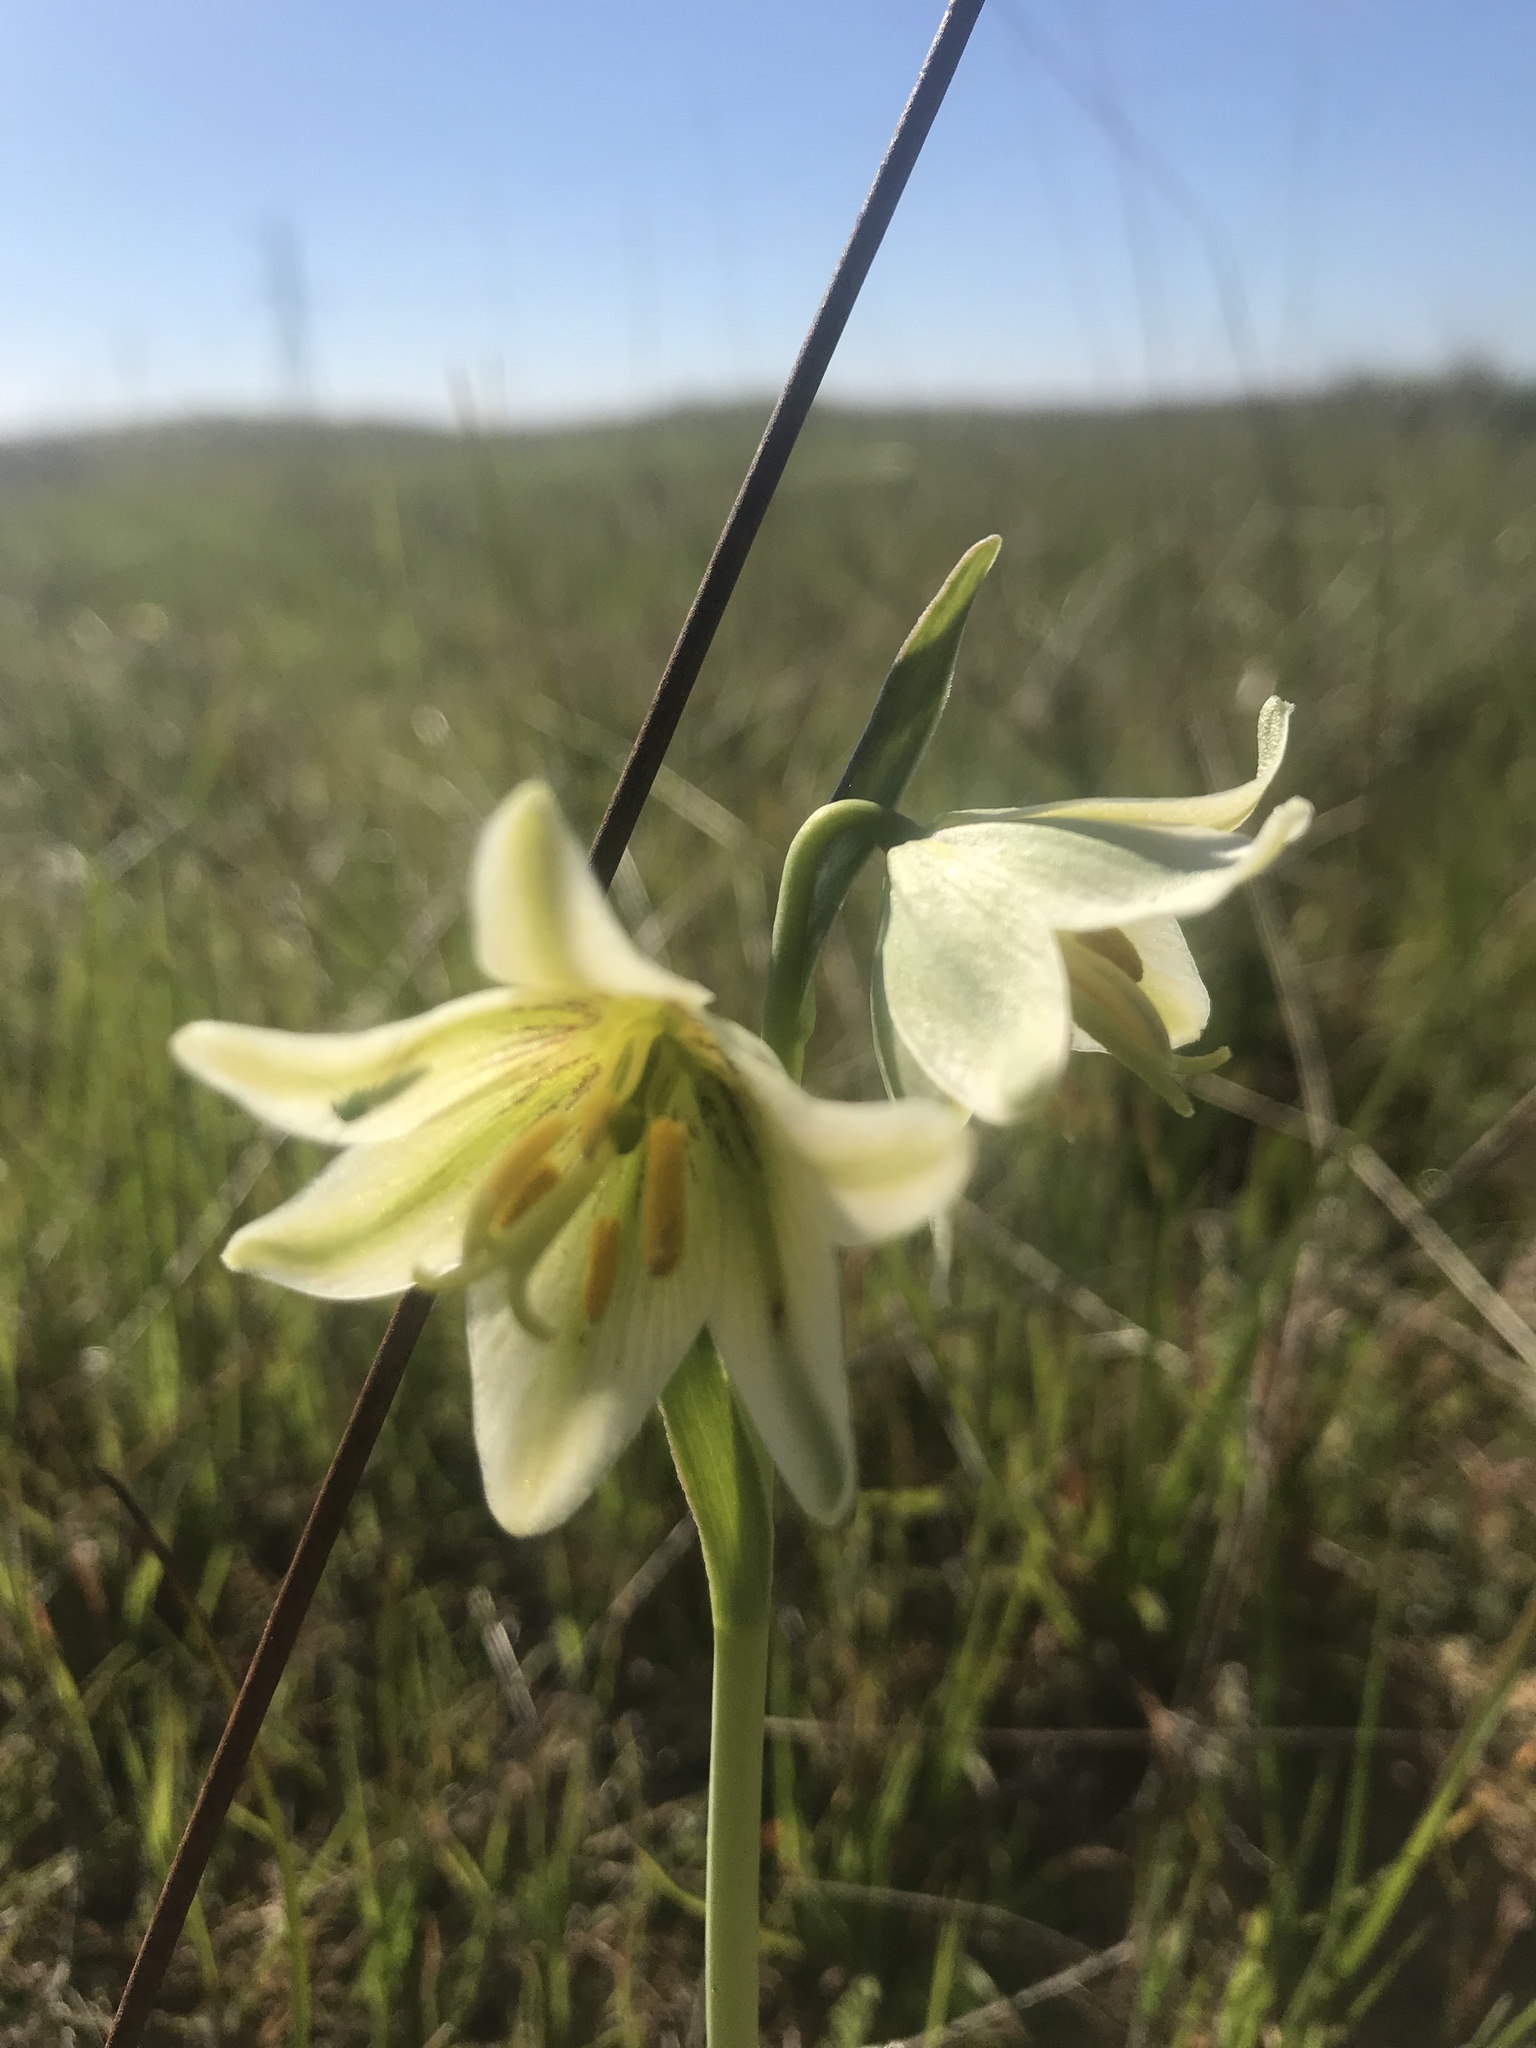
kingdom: Plantae
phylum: Tracheophyta
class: Liliopsida
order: Liliales
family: Liliaceae
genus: Fritillaria
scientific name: Fritillaria liliacea
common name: Fragrant fritillary
